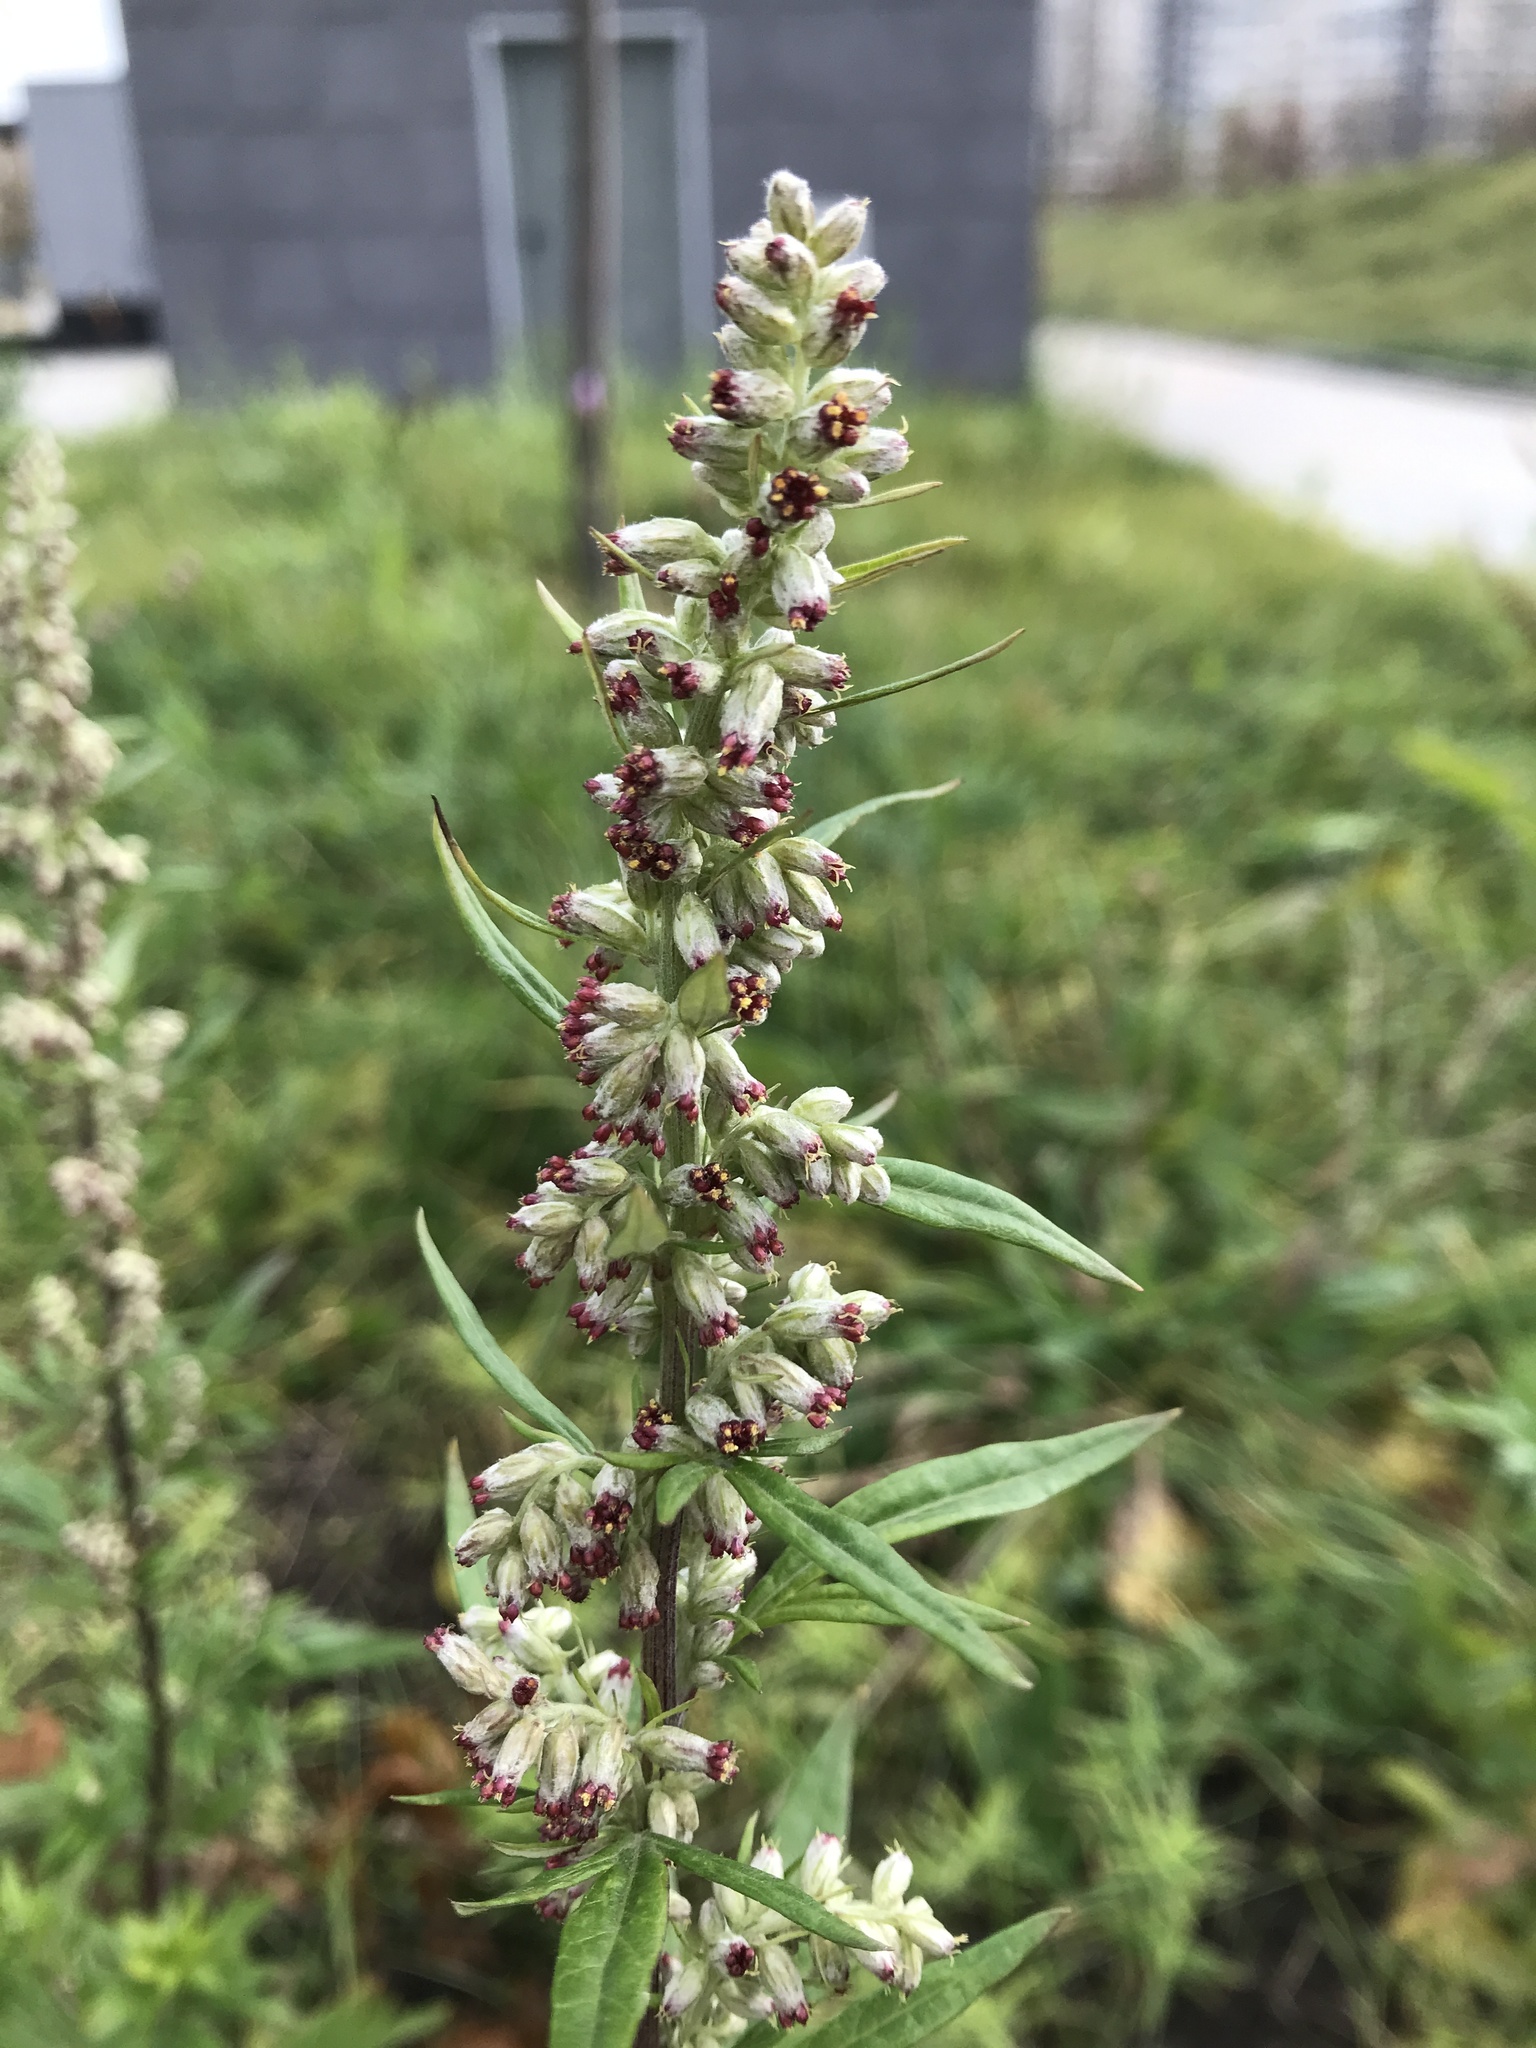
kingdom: Plantae
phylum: Tracheophyta
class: Magnoliopsida
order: Asterales
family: Asteraceae
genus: Artemisia
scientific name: Artemisia vulgaris
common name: Mugwort
